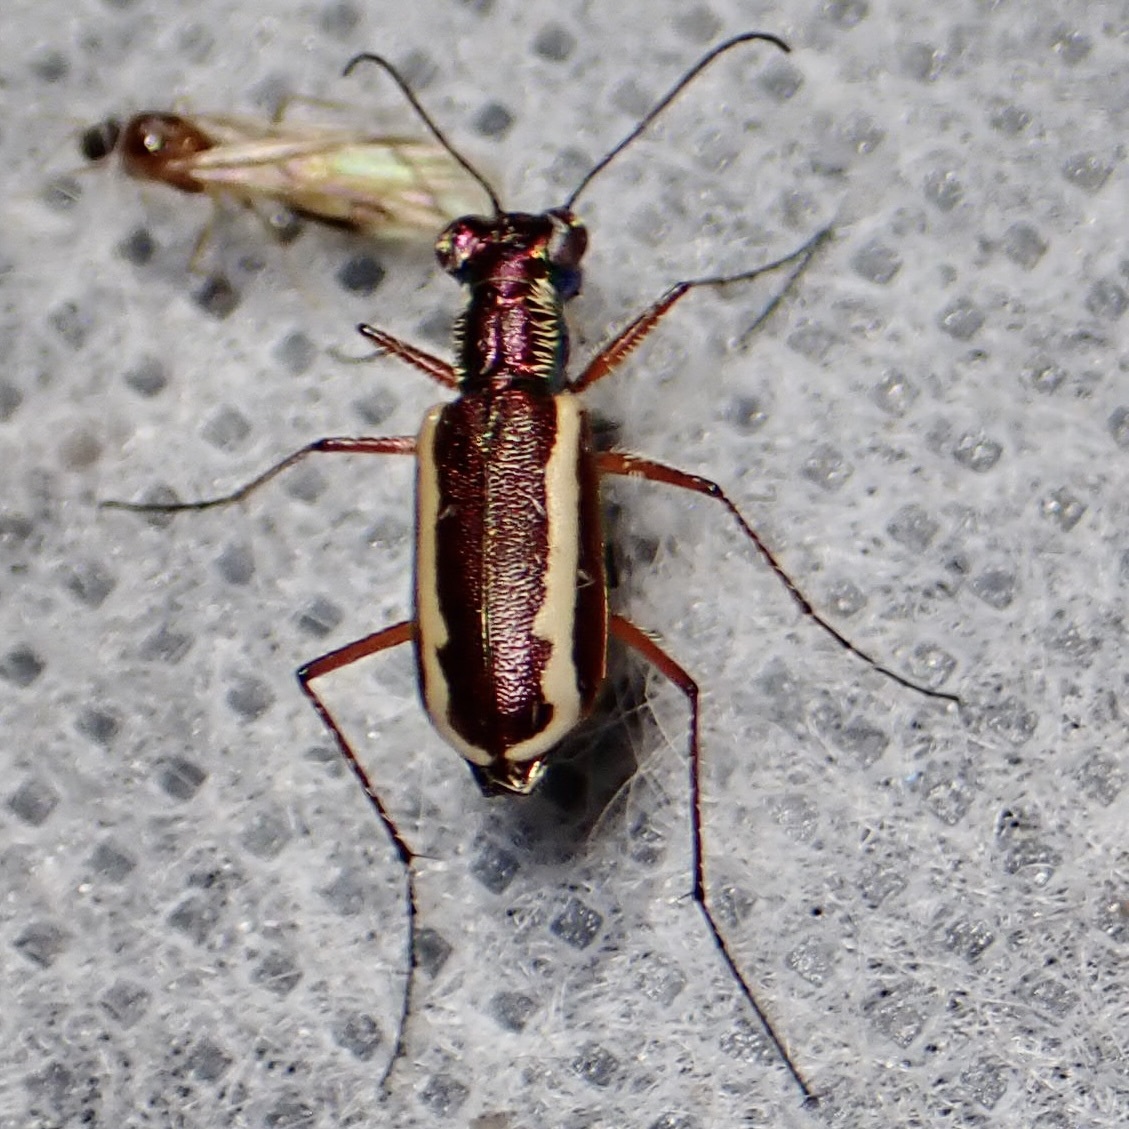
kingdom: Animalia
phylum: Arthropoda
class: Insecta
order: Coleoptera
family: Carabidae
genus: Cylindera
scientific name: Cylindera lemniscata
